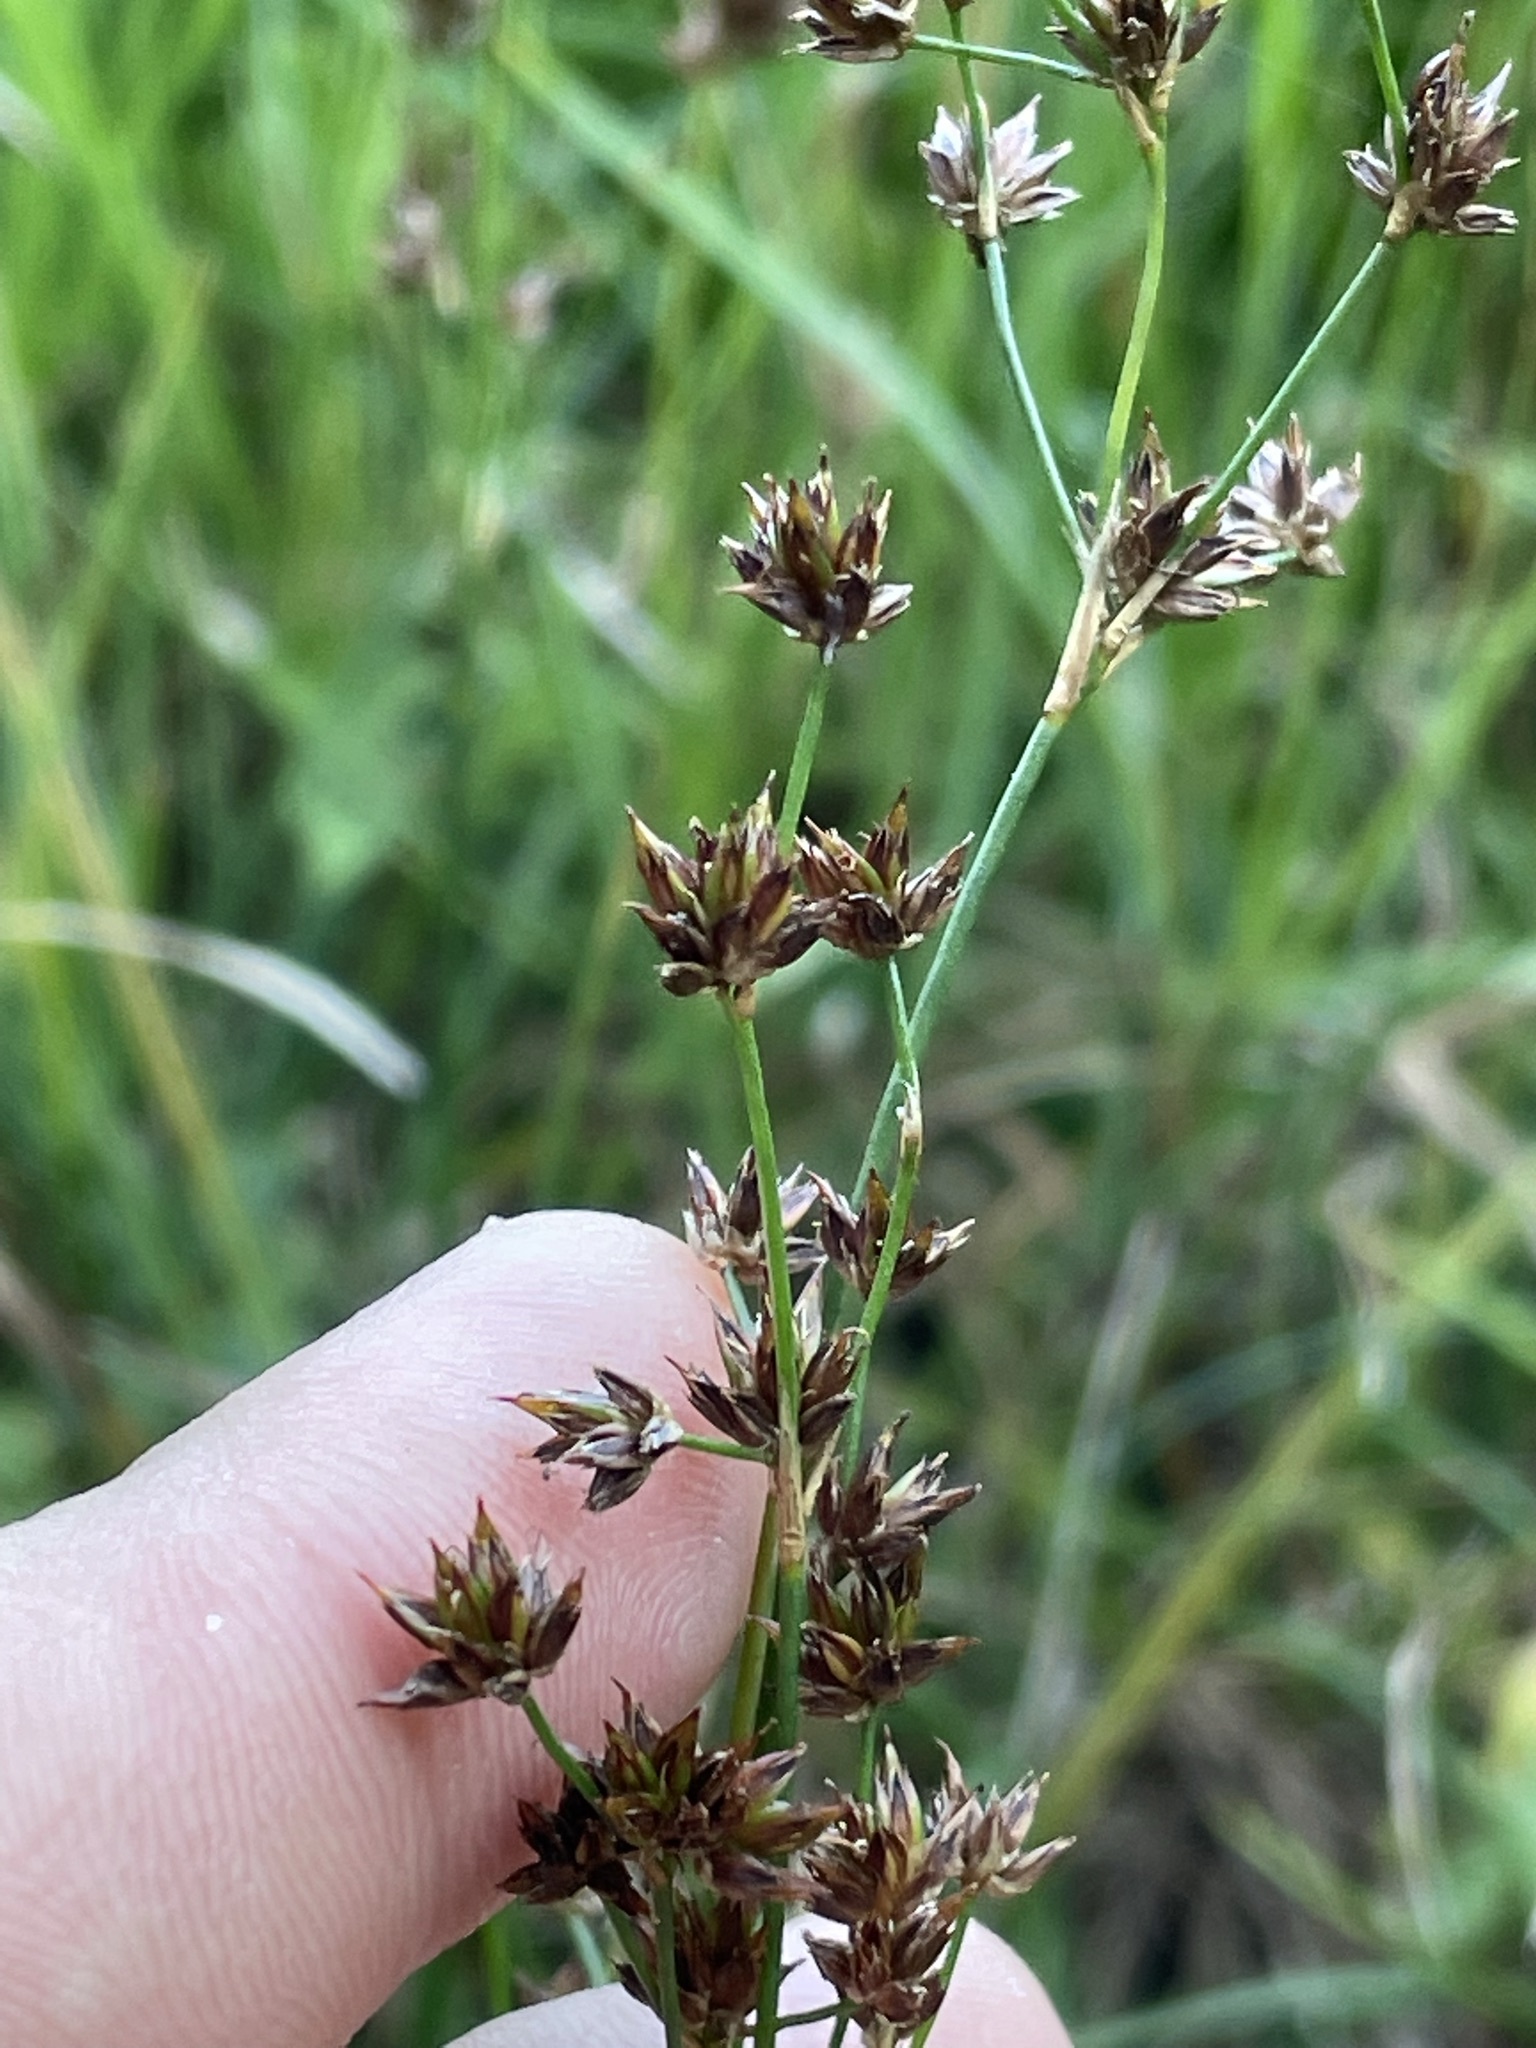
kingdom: Plantae
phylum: Tracheophyta
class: Liliopsida
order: Poales
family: Juncaceae
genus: Juncus
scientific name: Juncus articulatus
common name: Jointed rush
